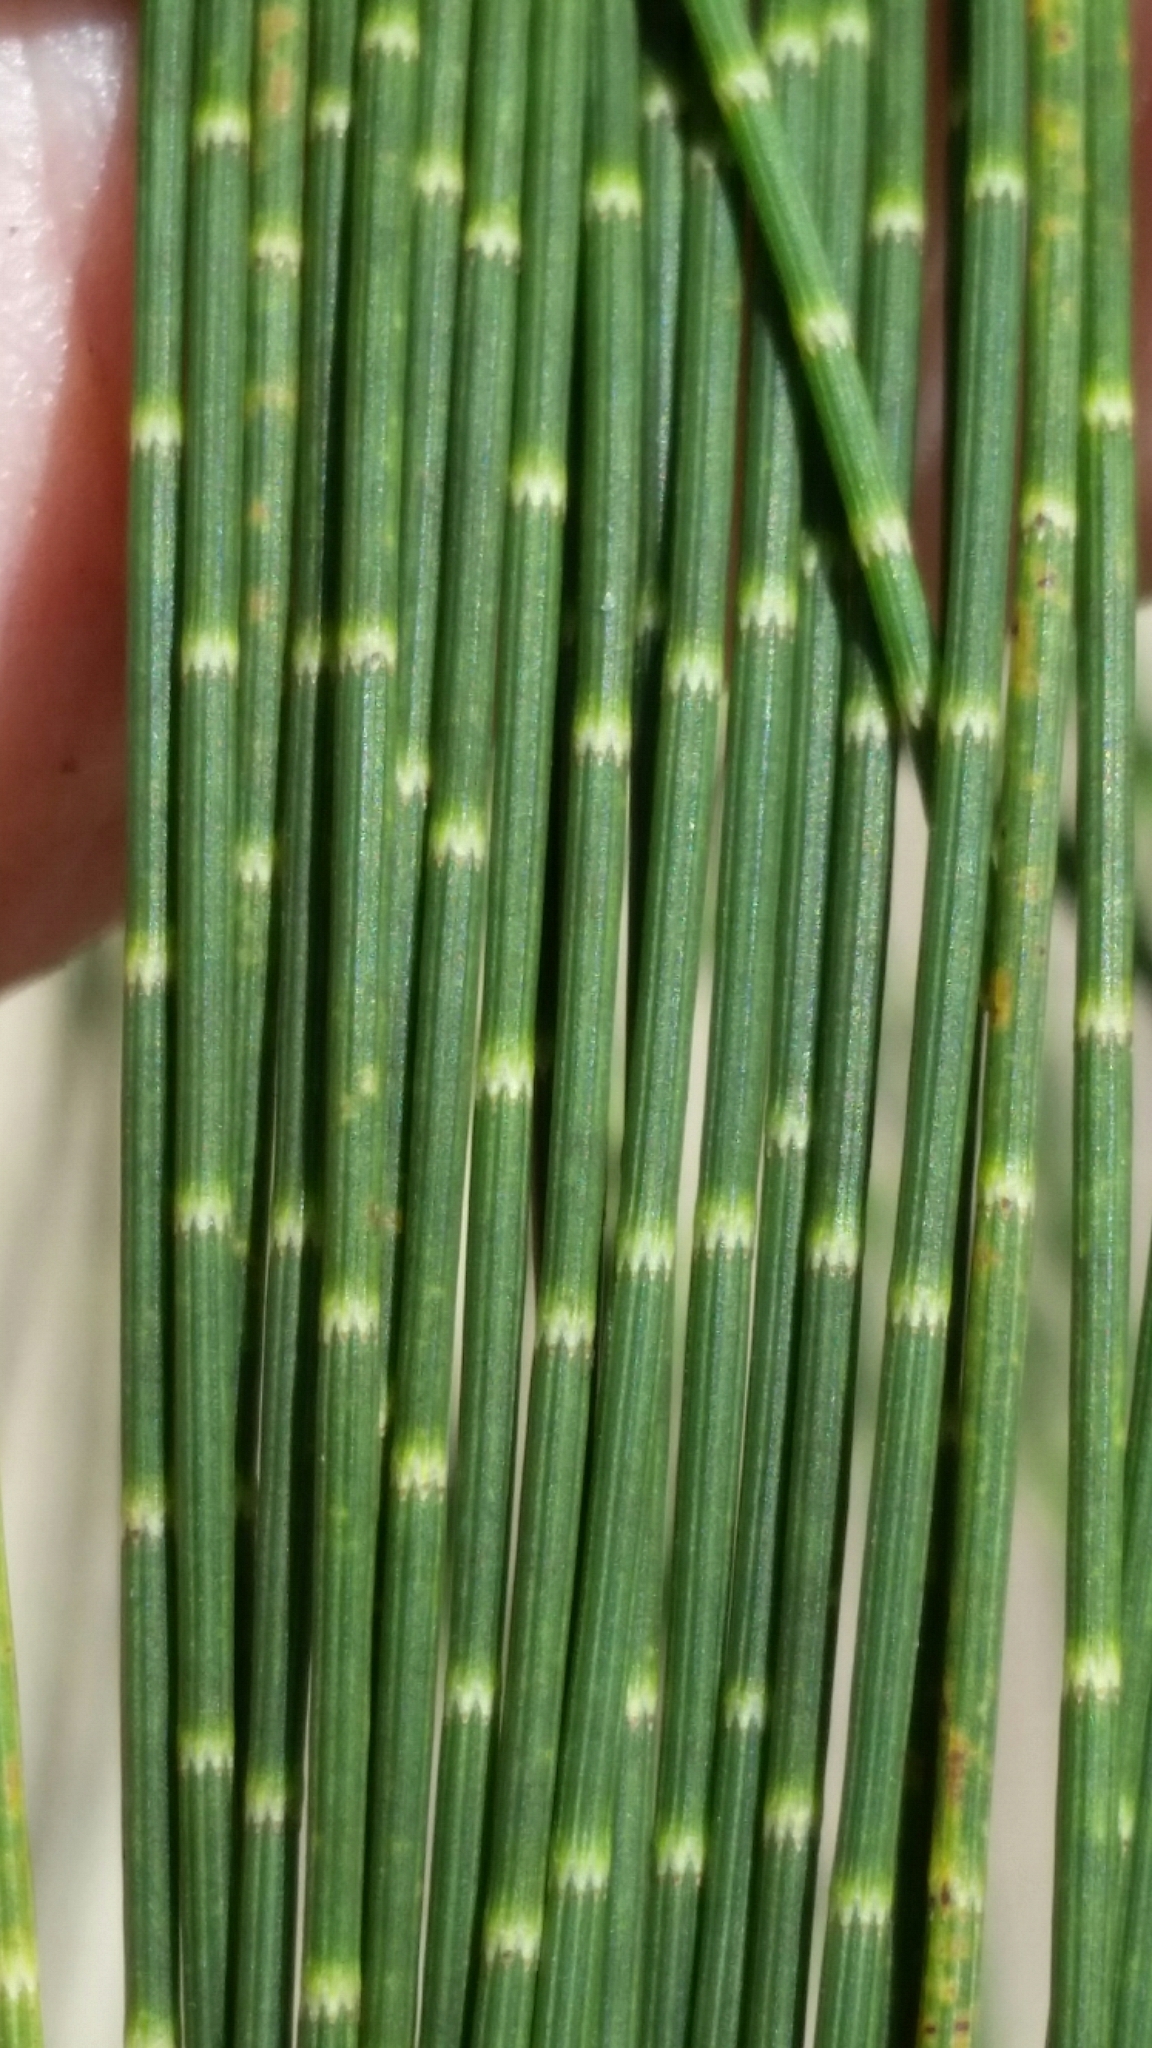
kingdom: Plantae
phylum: Tracheophyta
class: Magnoliopsida
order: Fagales
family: Casuarinaceae
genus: Casuarina
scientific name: Casuarina cunninghamiana
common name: River sheoak
